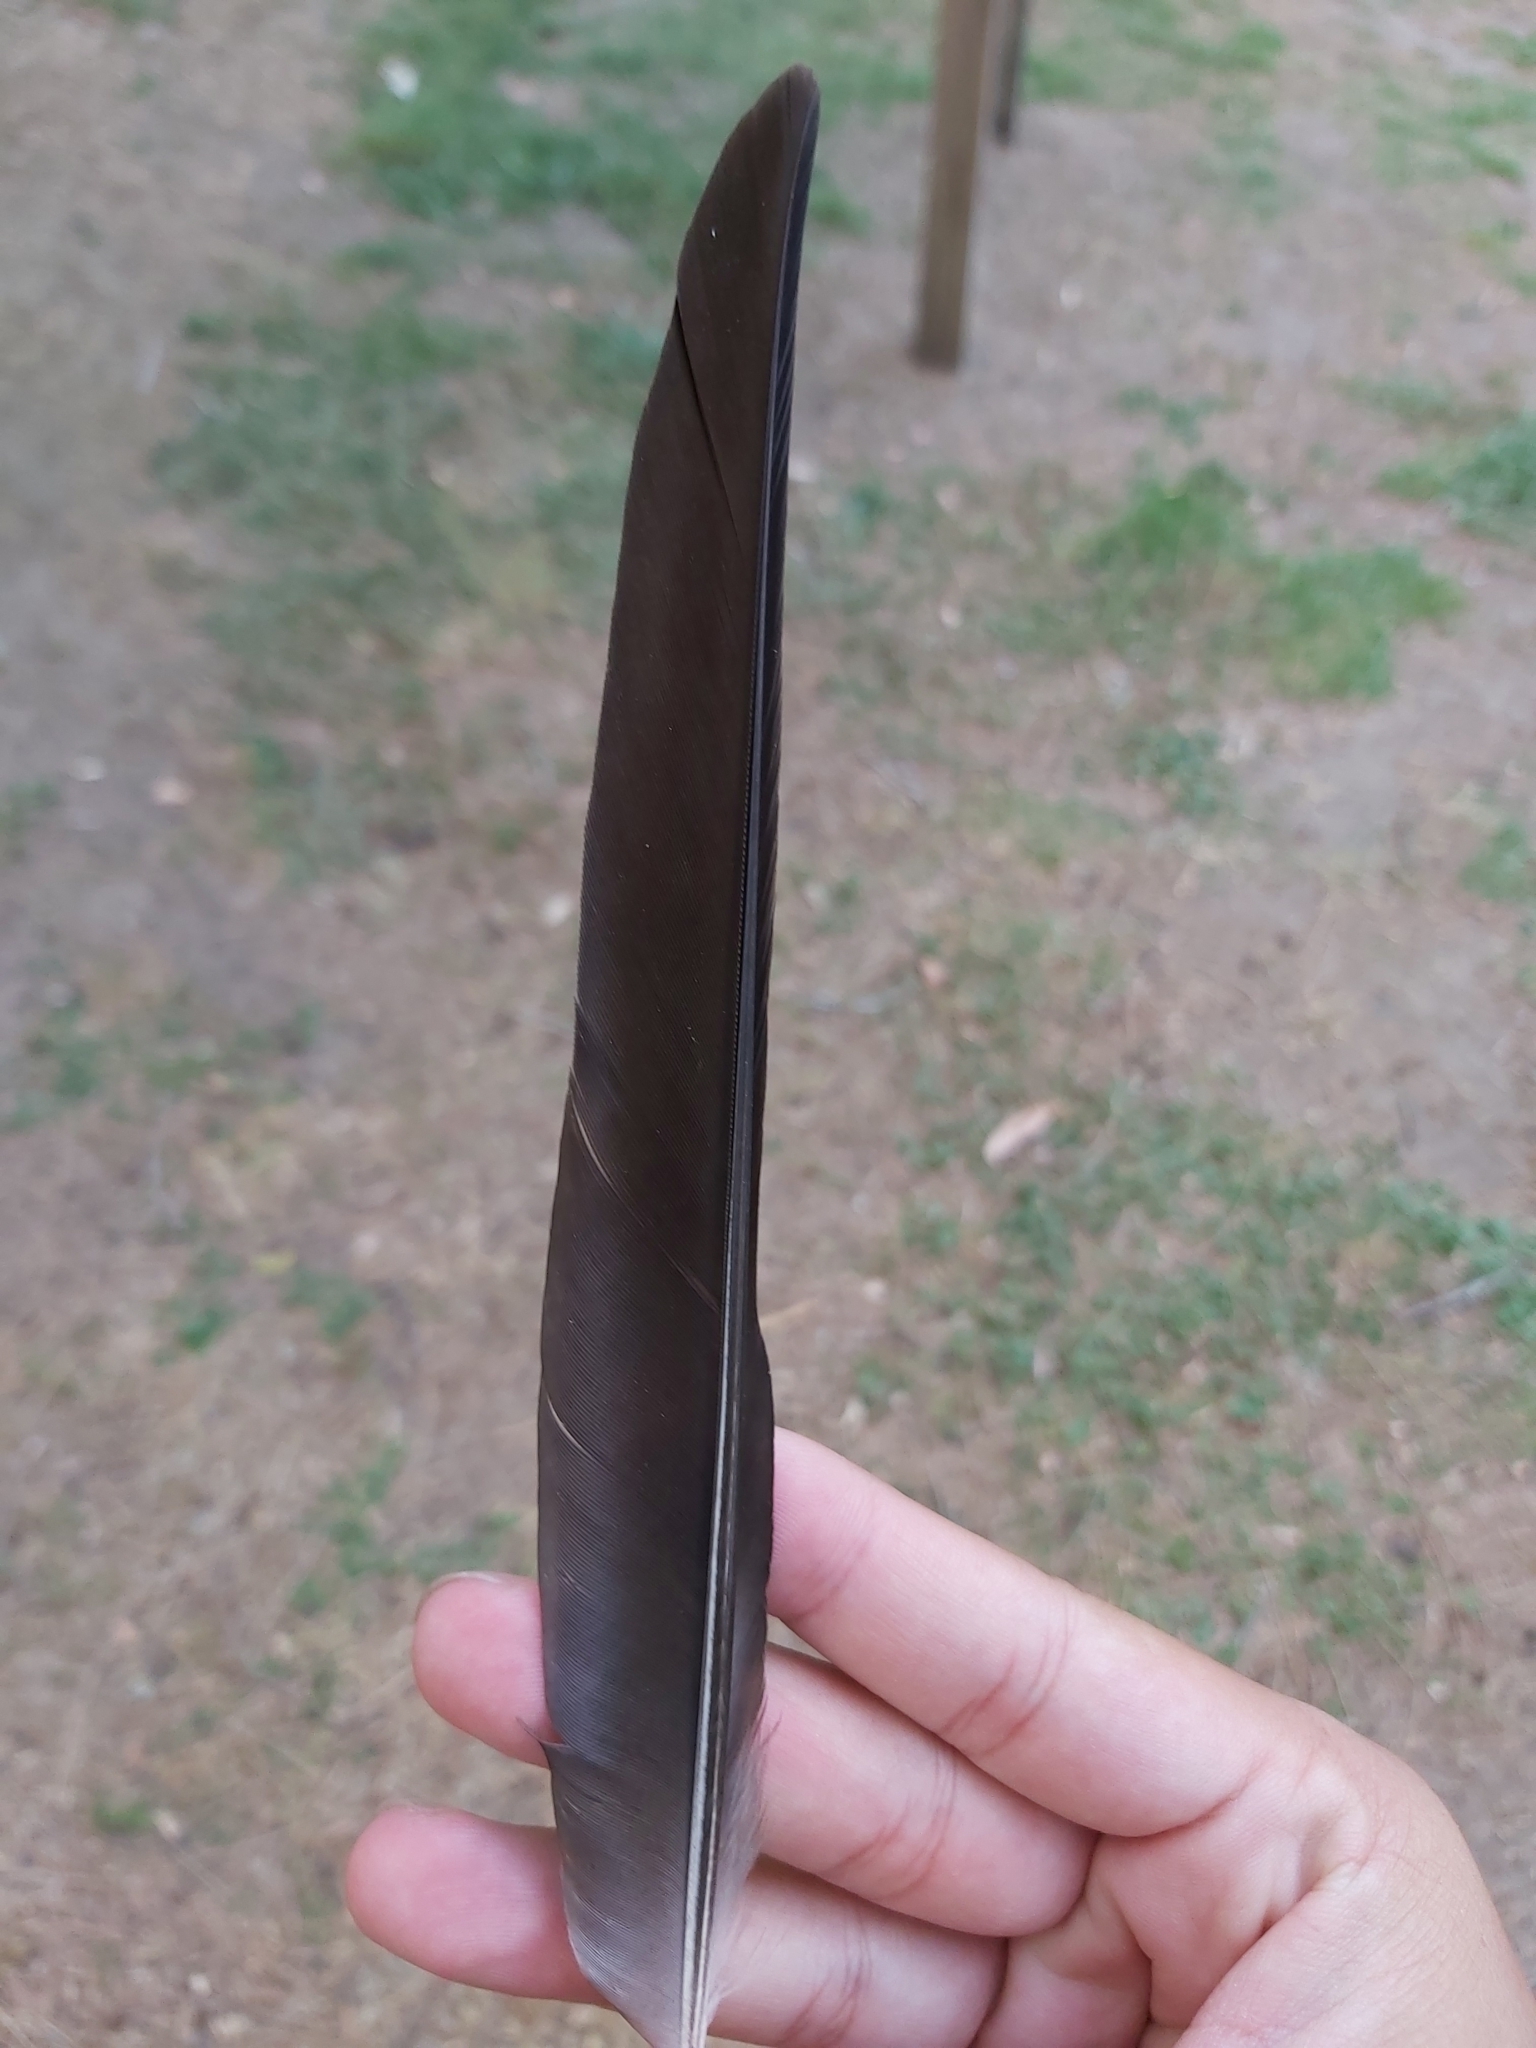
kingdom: Animalia
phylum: Chordata
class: Aves
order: Passeriformes
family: Cracticidae
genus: Gymnorhina
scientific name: Gymnorhina tibicen
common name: Australian magpie
